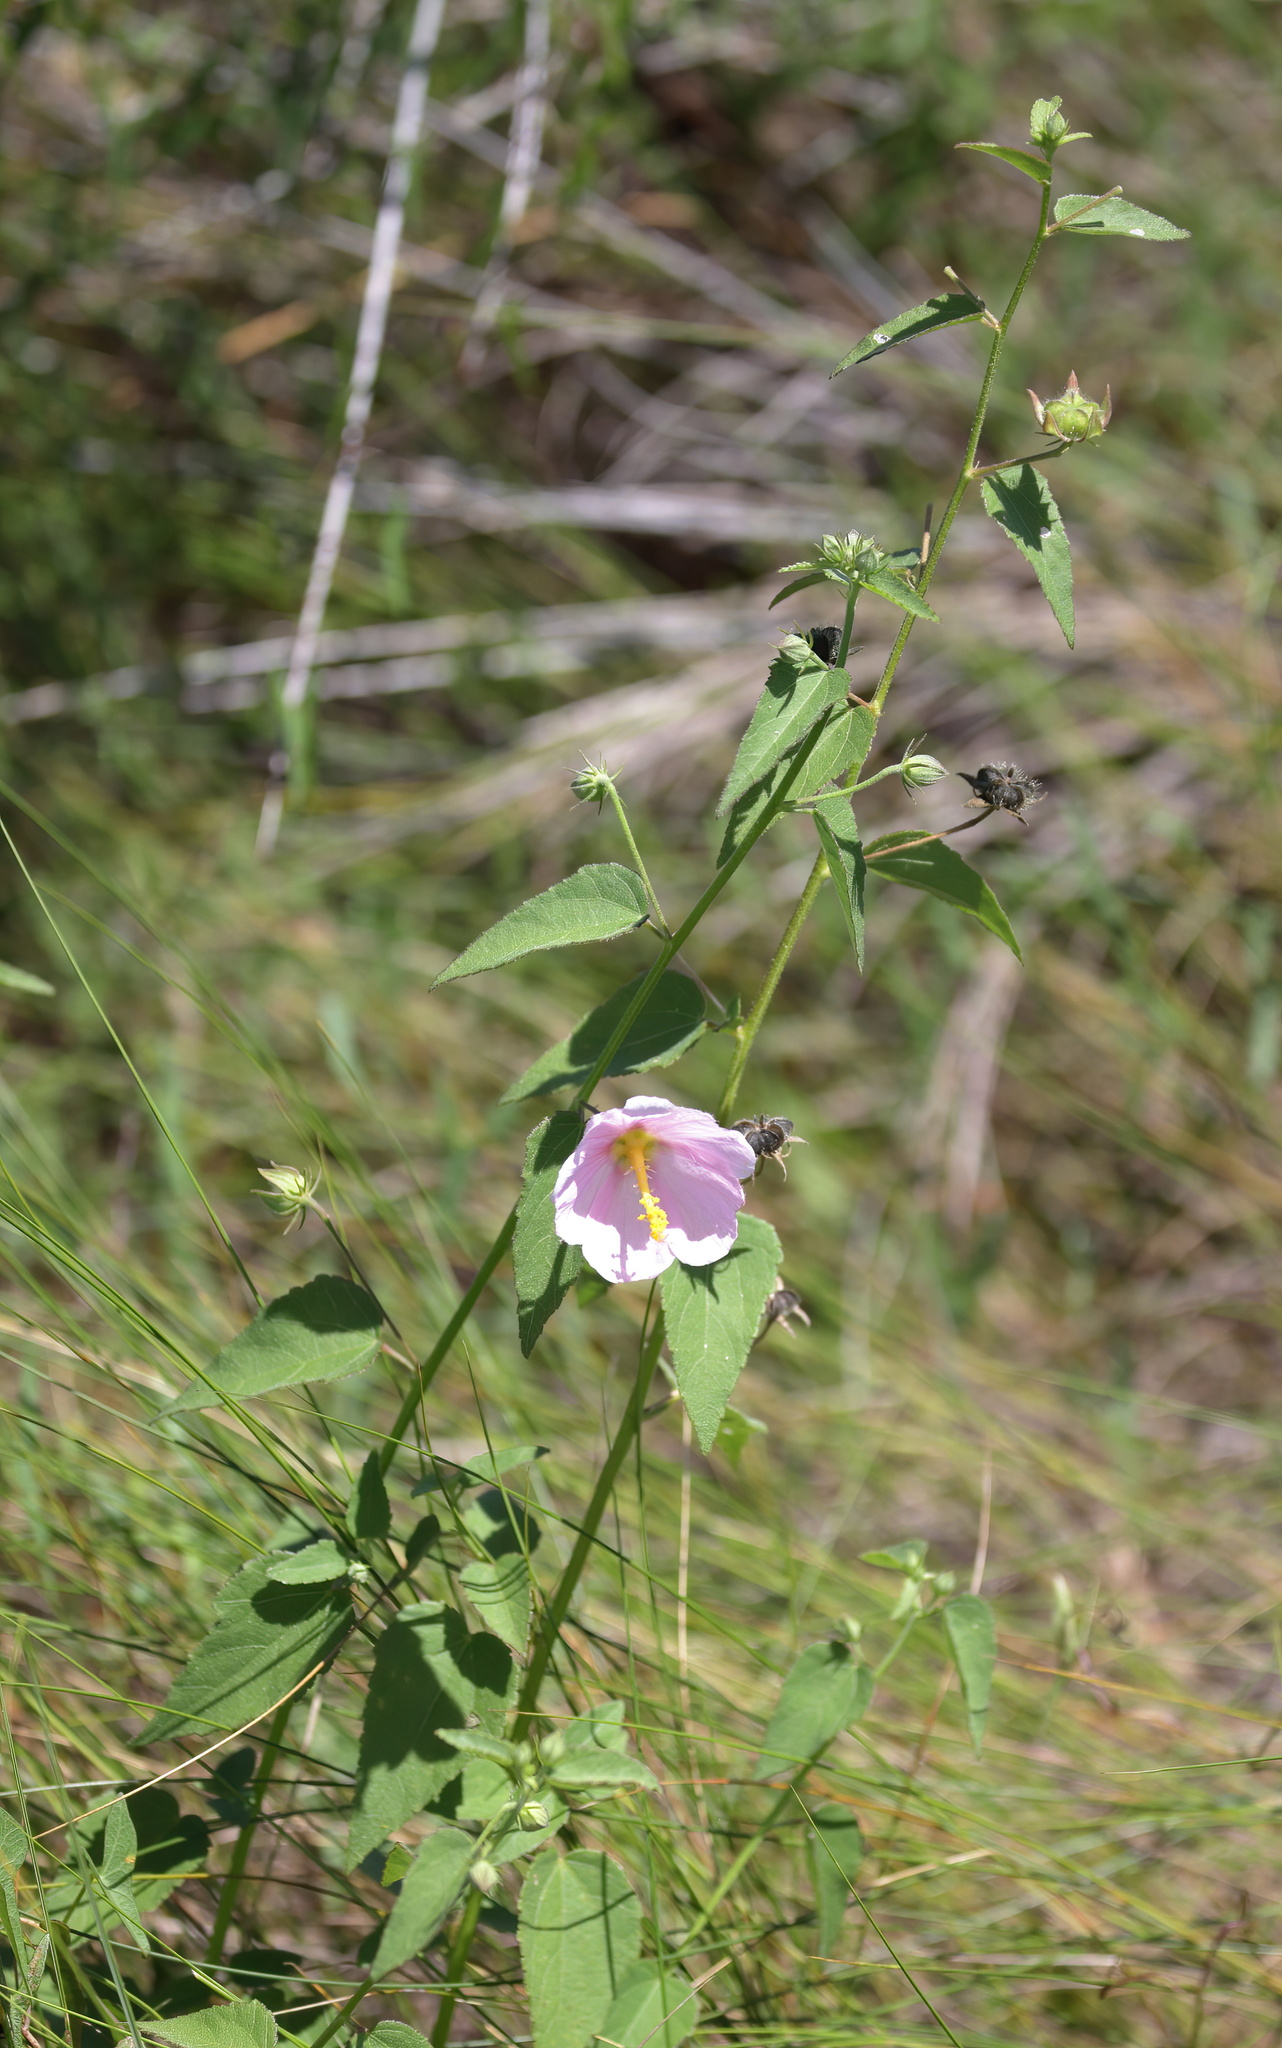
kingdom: Plantae
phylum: Tracheophyta
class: Magnoliopsida
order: Malvales
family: Malvaceae
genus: Kosteletzkya
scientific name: Kosteletzkya pentacarpos
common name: Virginia saltmarsh mallow
